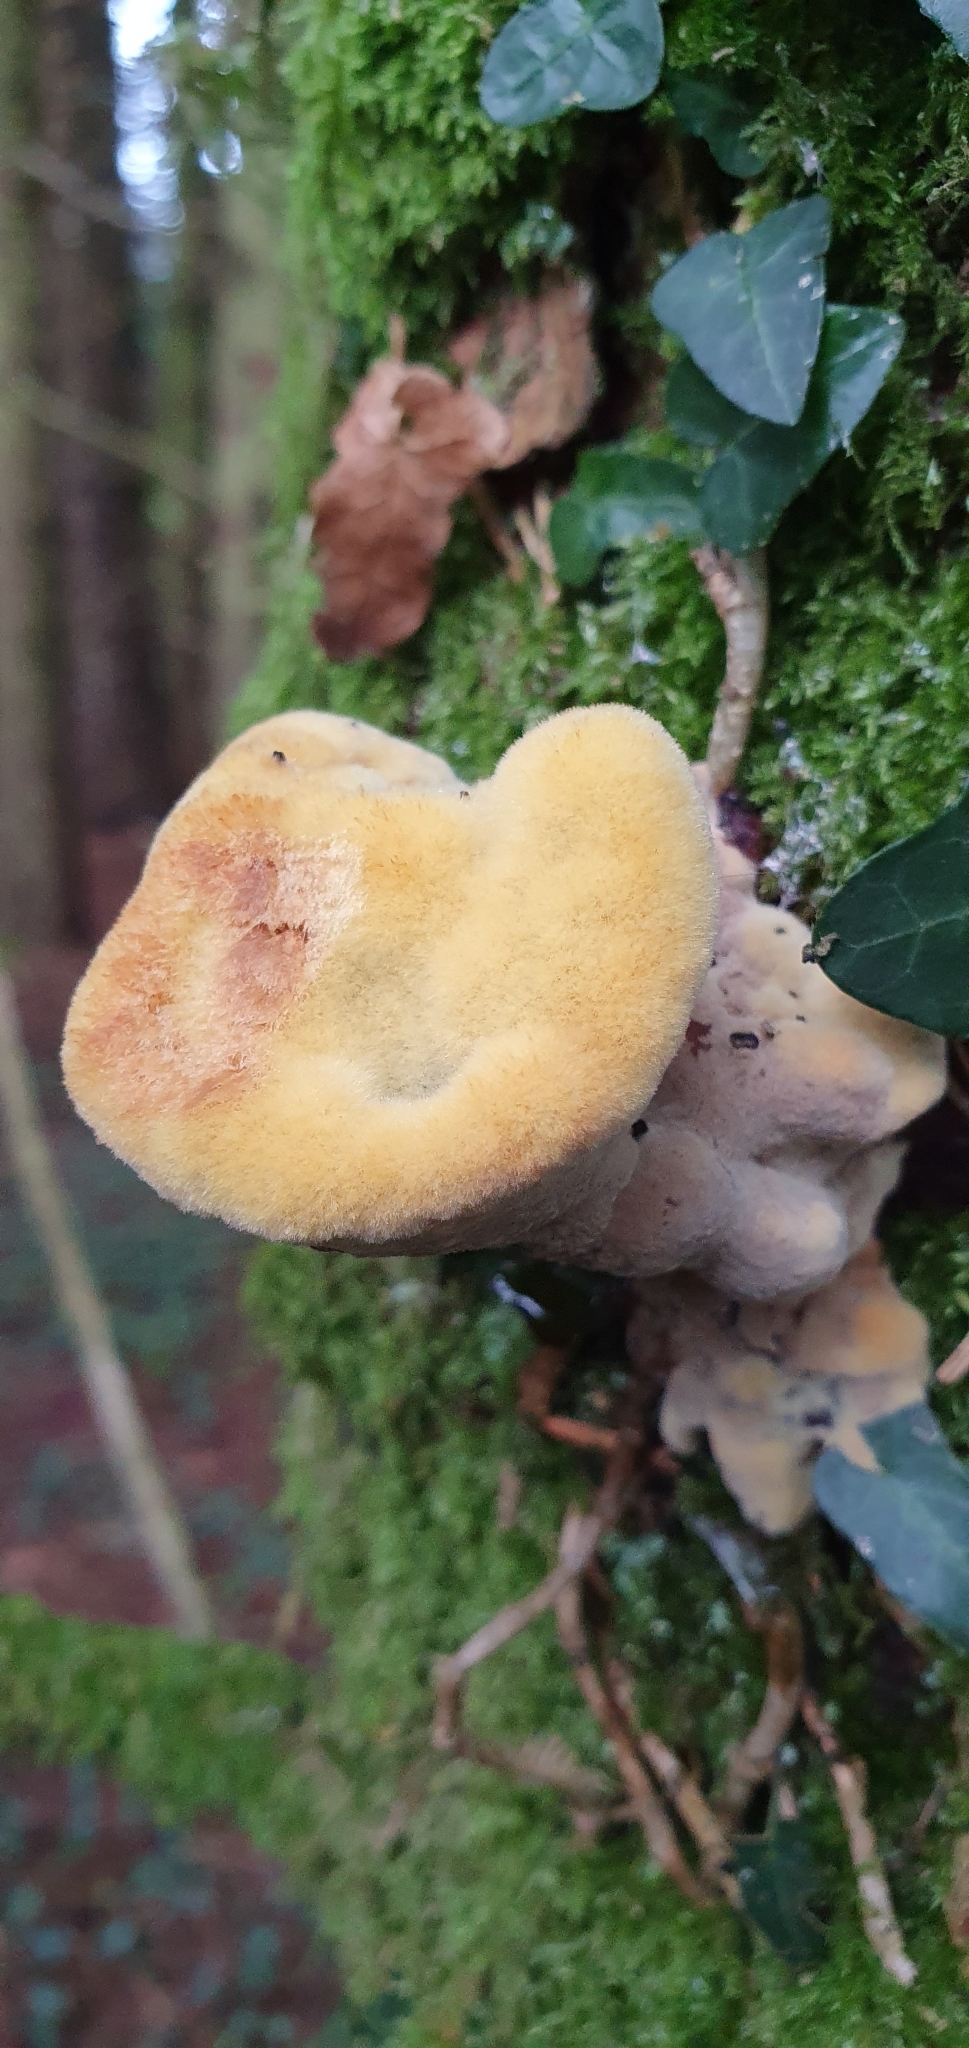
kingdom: Fungi
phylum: Basidiomycota
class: Agaricomycetes
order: Polyporales
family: Laetiporaceae
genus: Phaeolus
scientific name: Phaeolus schweinitzii
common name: Dyer's mazegill
